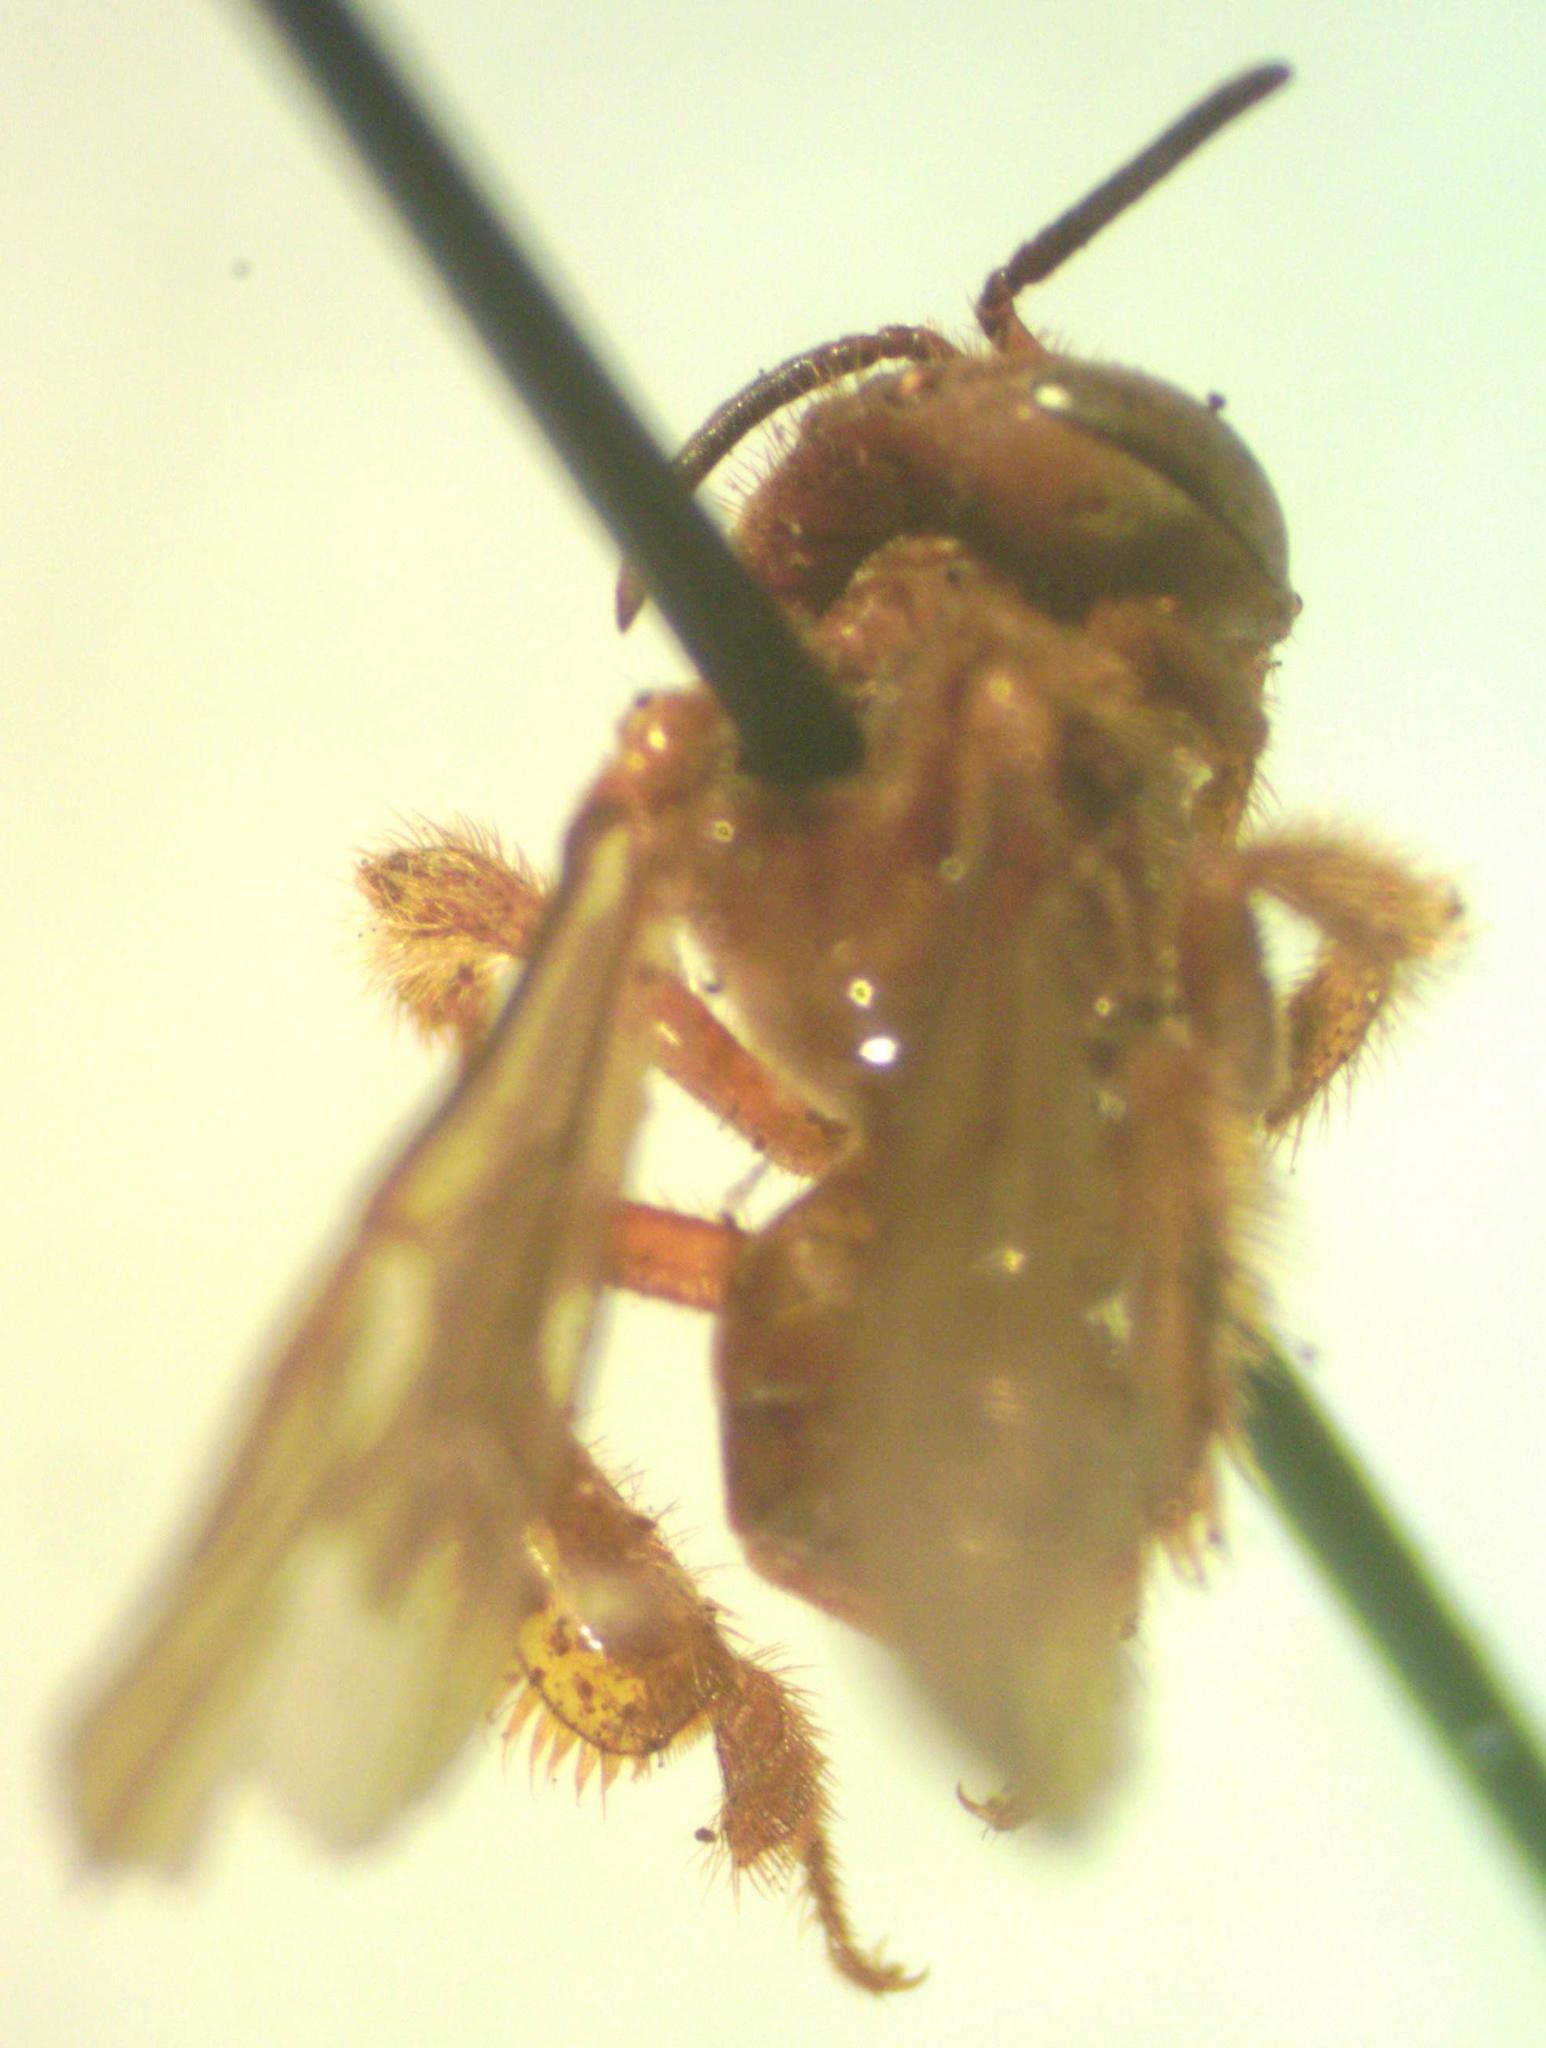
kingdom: Animalia
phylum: Arthropoda
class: Insecta
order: Hymenoptera
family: Apidae
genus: Trigona
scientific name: Trigona muzoensis
